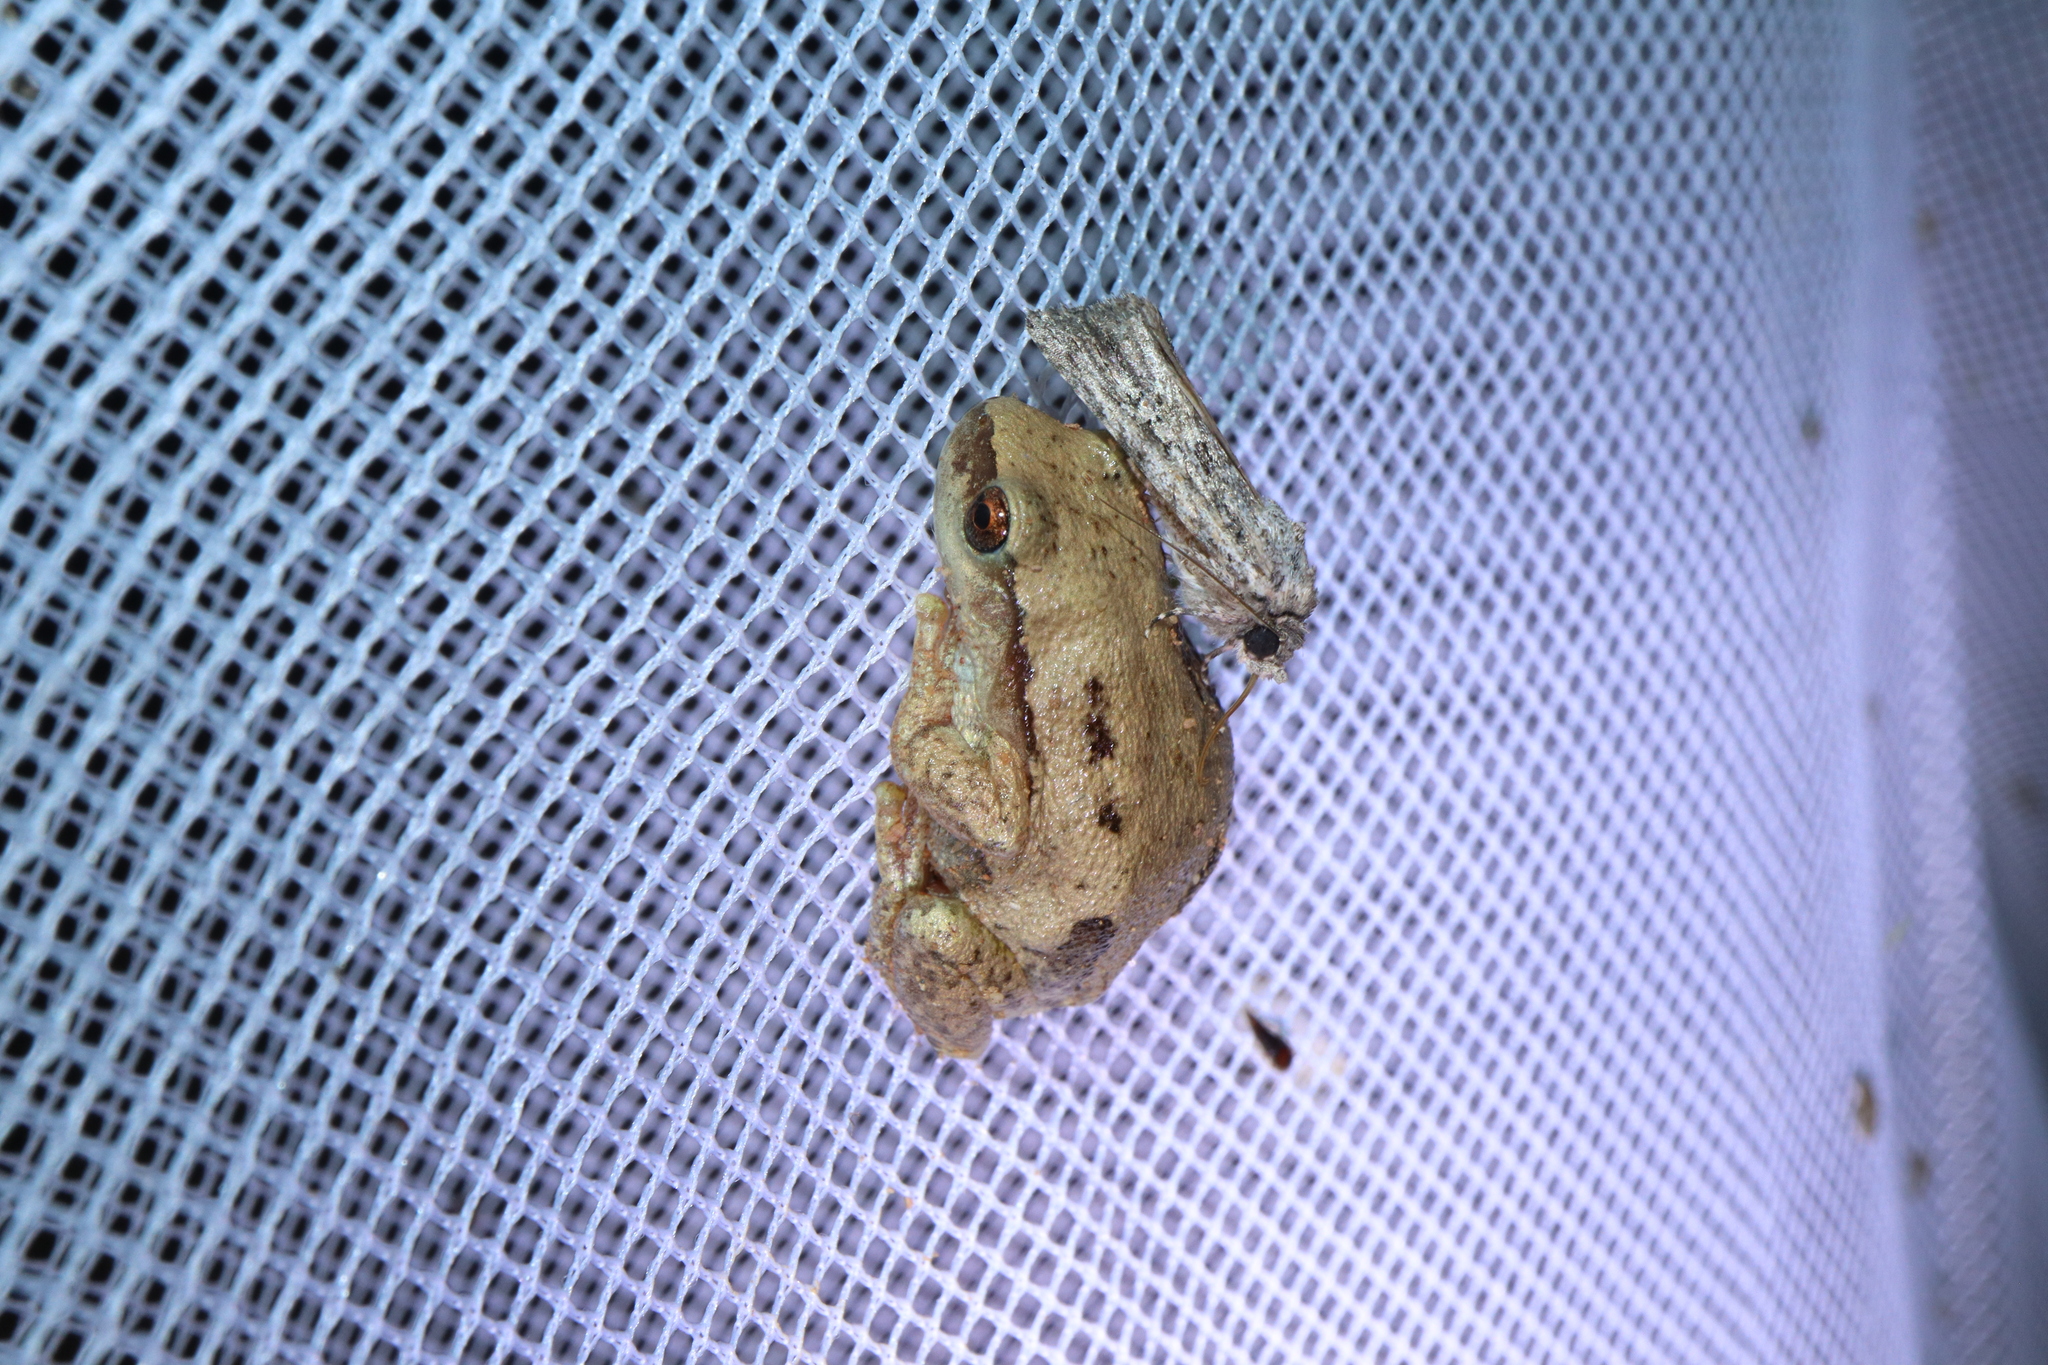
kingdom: Animalia
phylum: Chordata
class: Amphibia
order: Anura
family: Pelodryadidae
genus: Litoria
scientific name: Litoria rubella
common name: Desert tree frog
